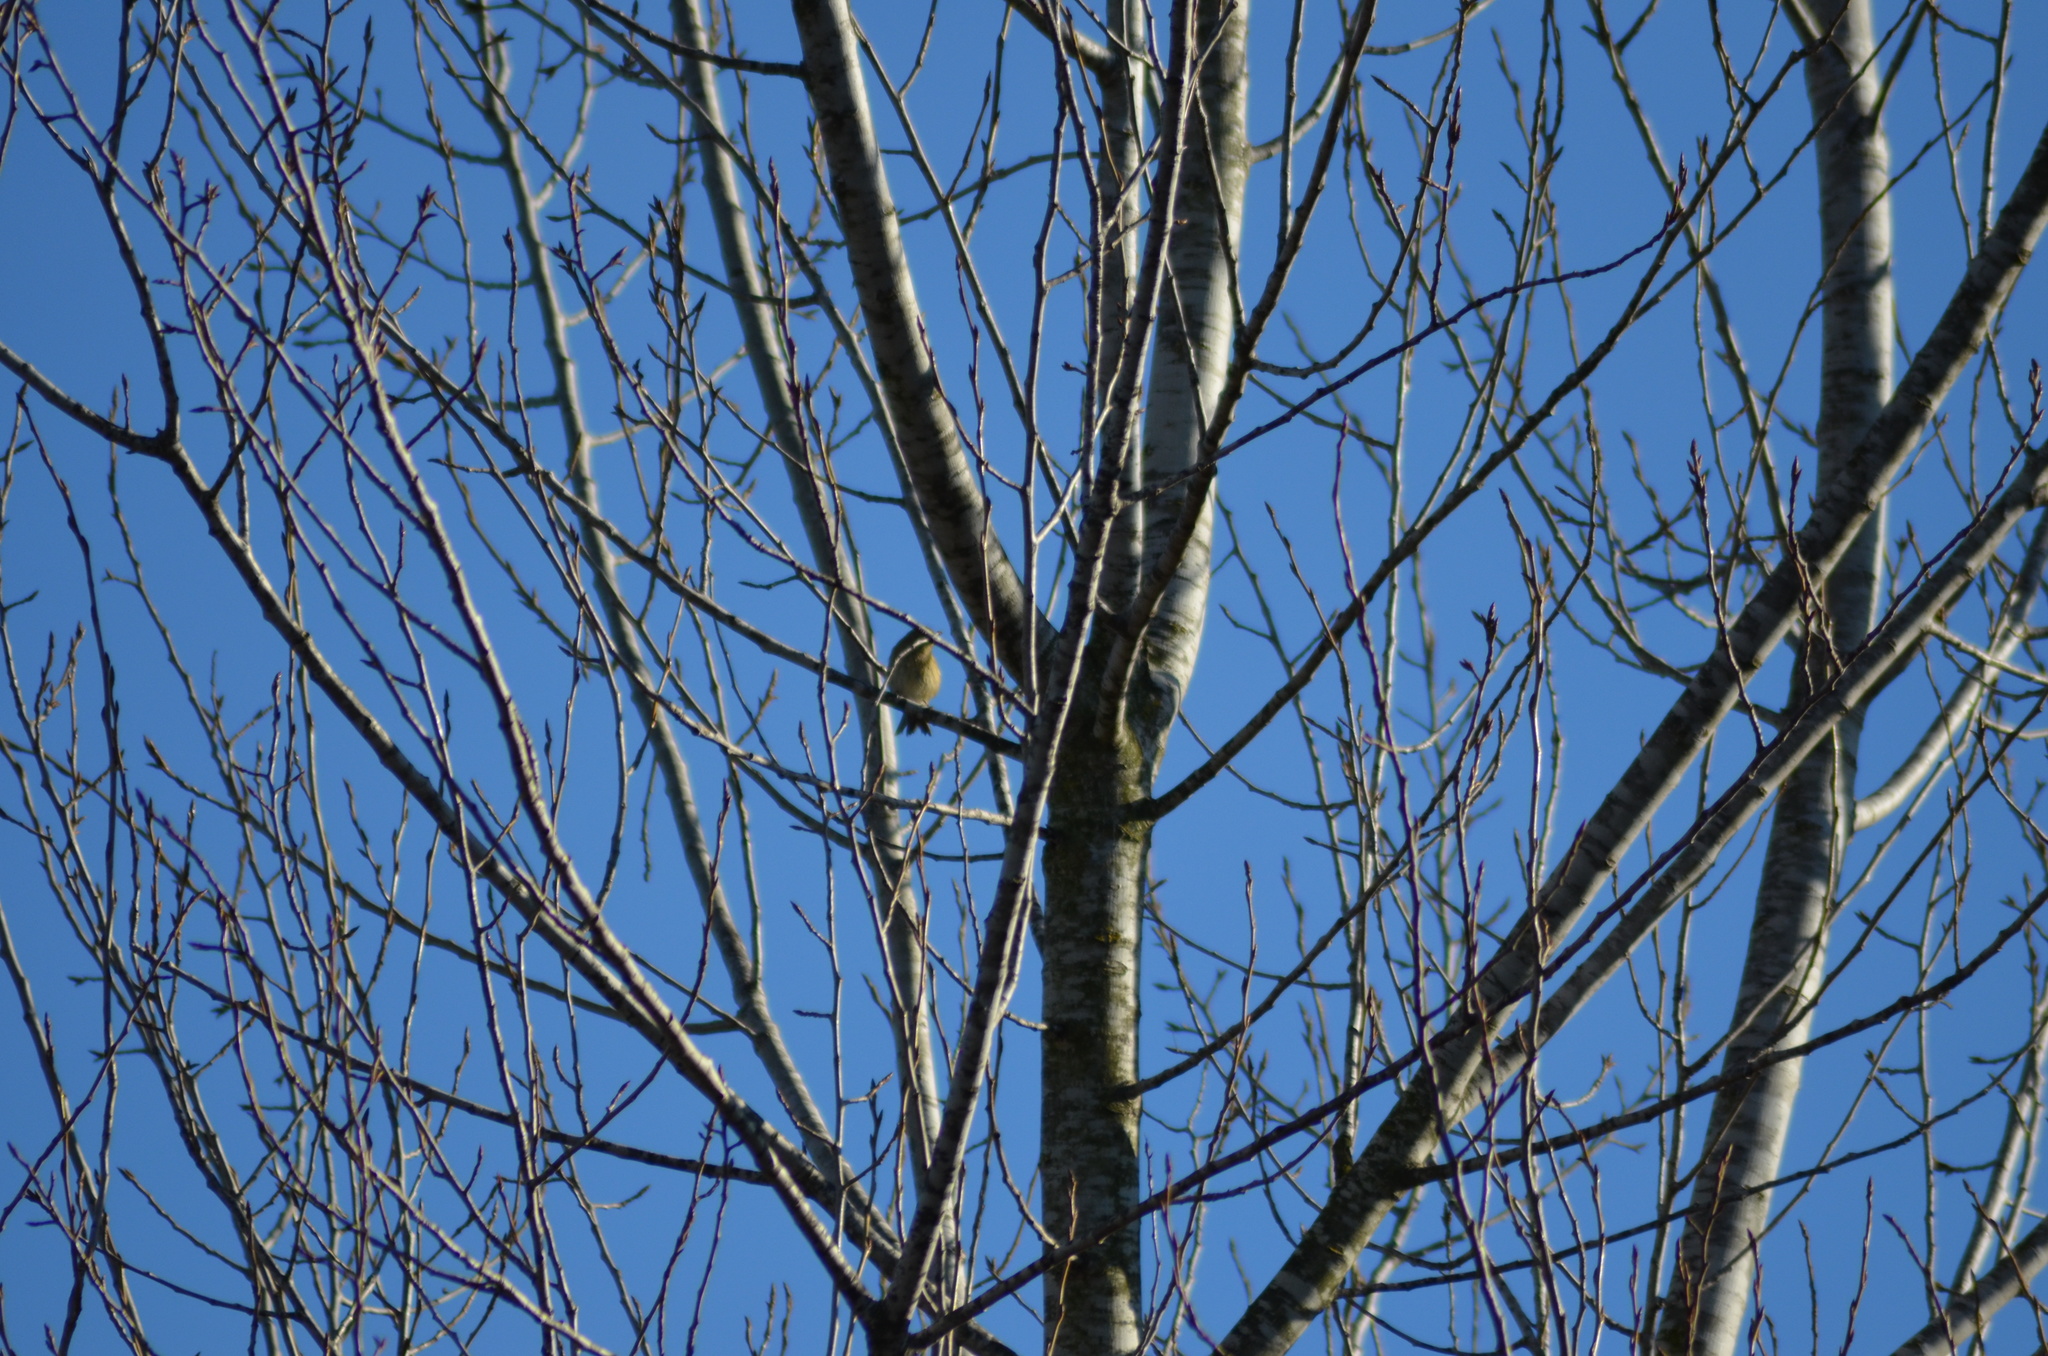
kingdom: Animalia
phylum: Chordata
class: Aves
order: Passeriformes
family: Phylloscopidae
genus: Phylloscopus
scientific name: Phylloscopus collybita
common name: Common chiffchaff
